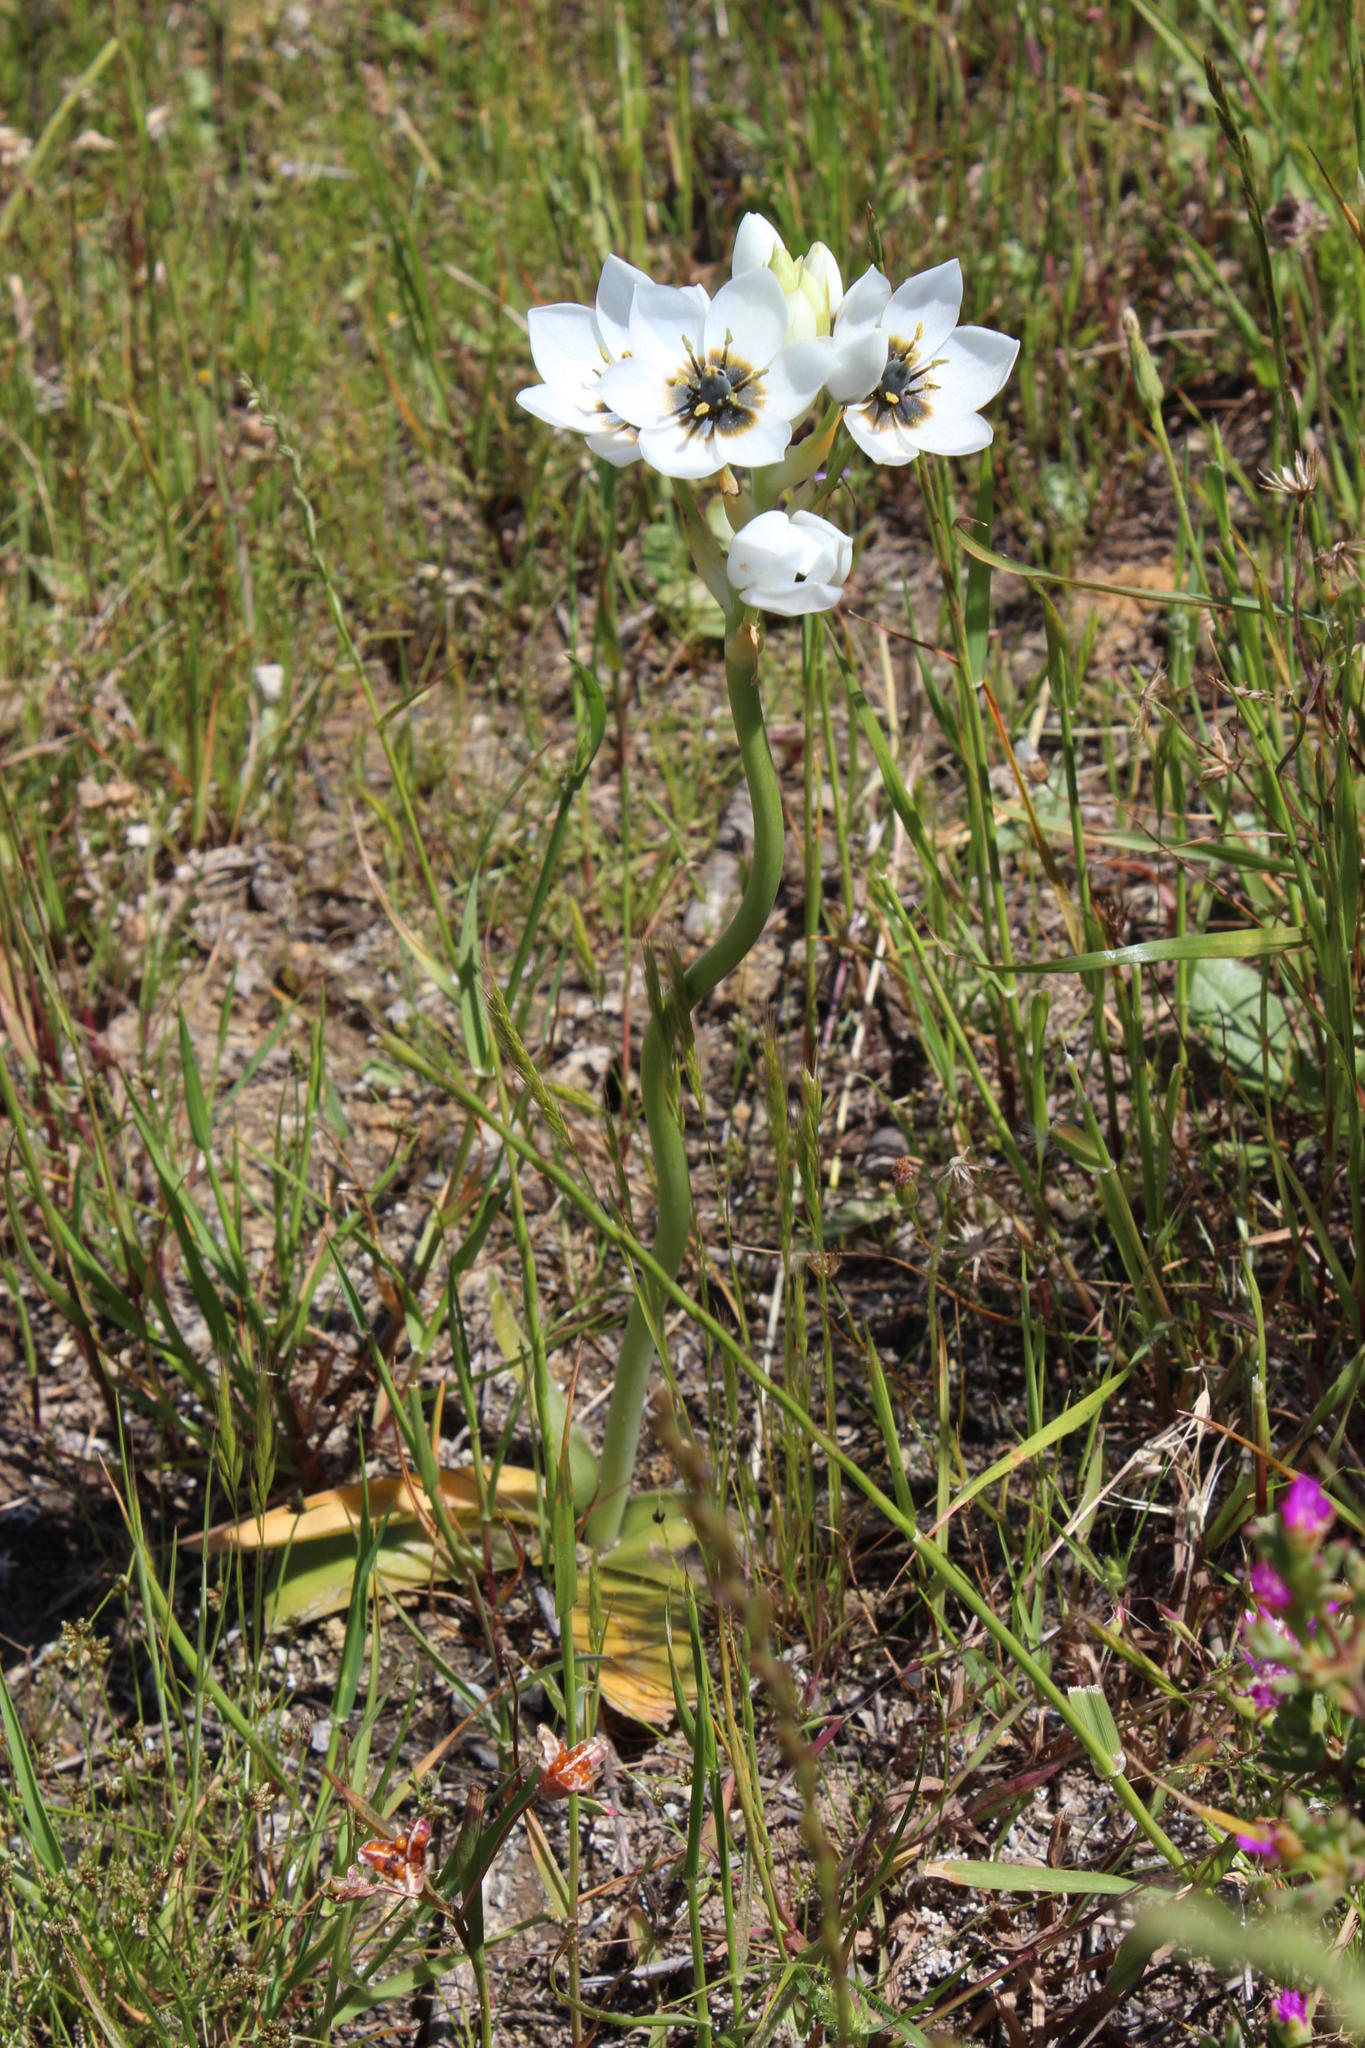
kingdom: Plantae
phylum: Tracheophyta
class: Liliopsida
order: Asparagales
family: Asparagaceae
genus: Ornithogalum
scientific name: Ornithogalum dubium
